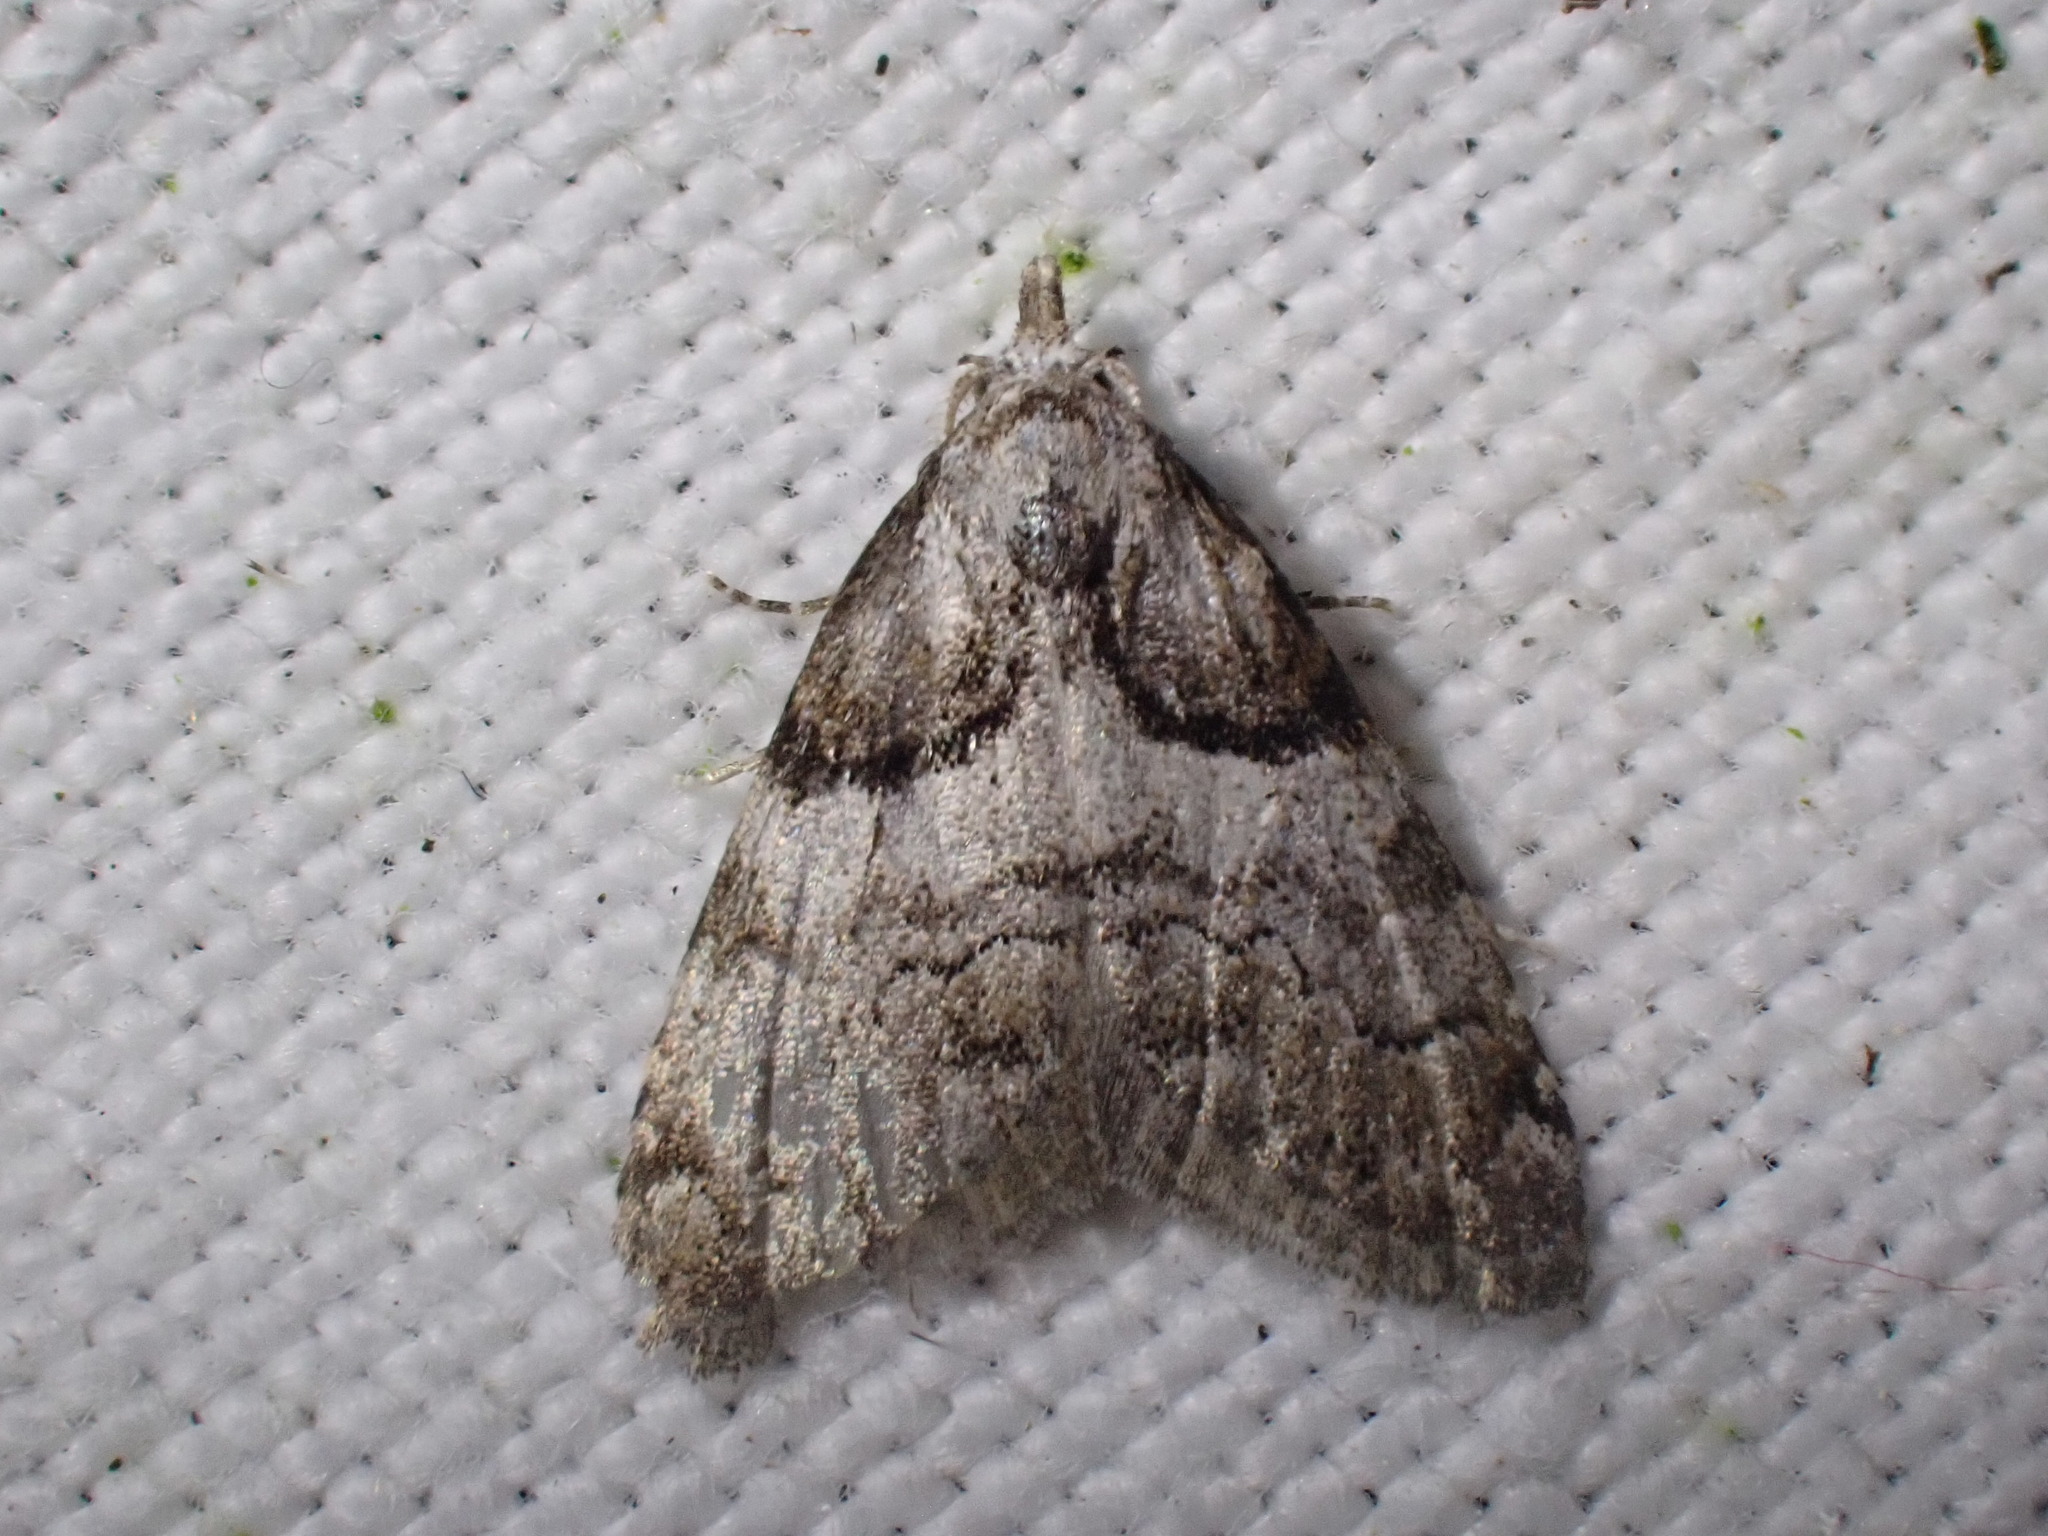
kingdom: Animalia
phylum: Arthropoda
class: Insecta
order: Lepidoptera
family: Nolidae
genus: Nola
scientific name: Nola cucullatella
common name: Short-cloaked moth
